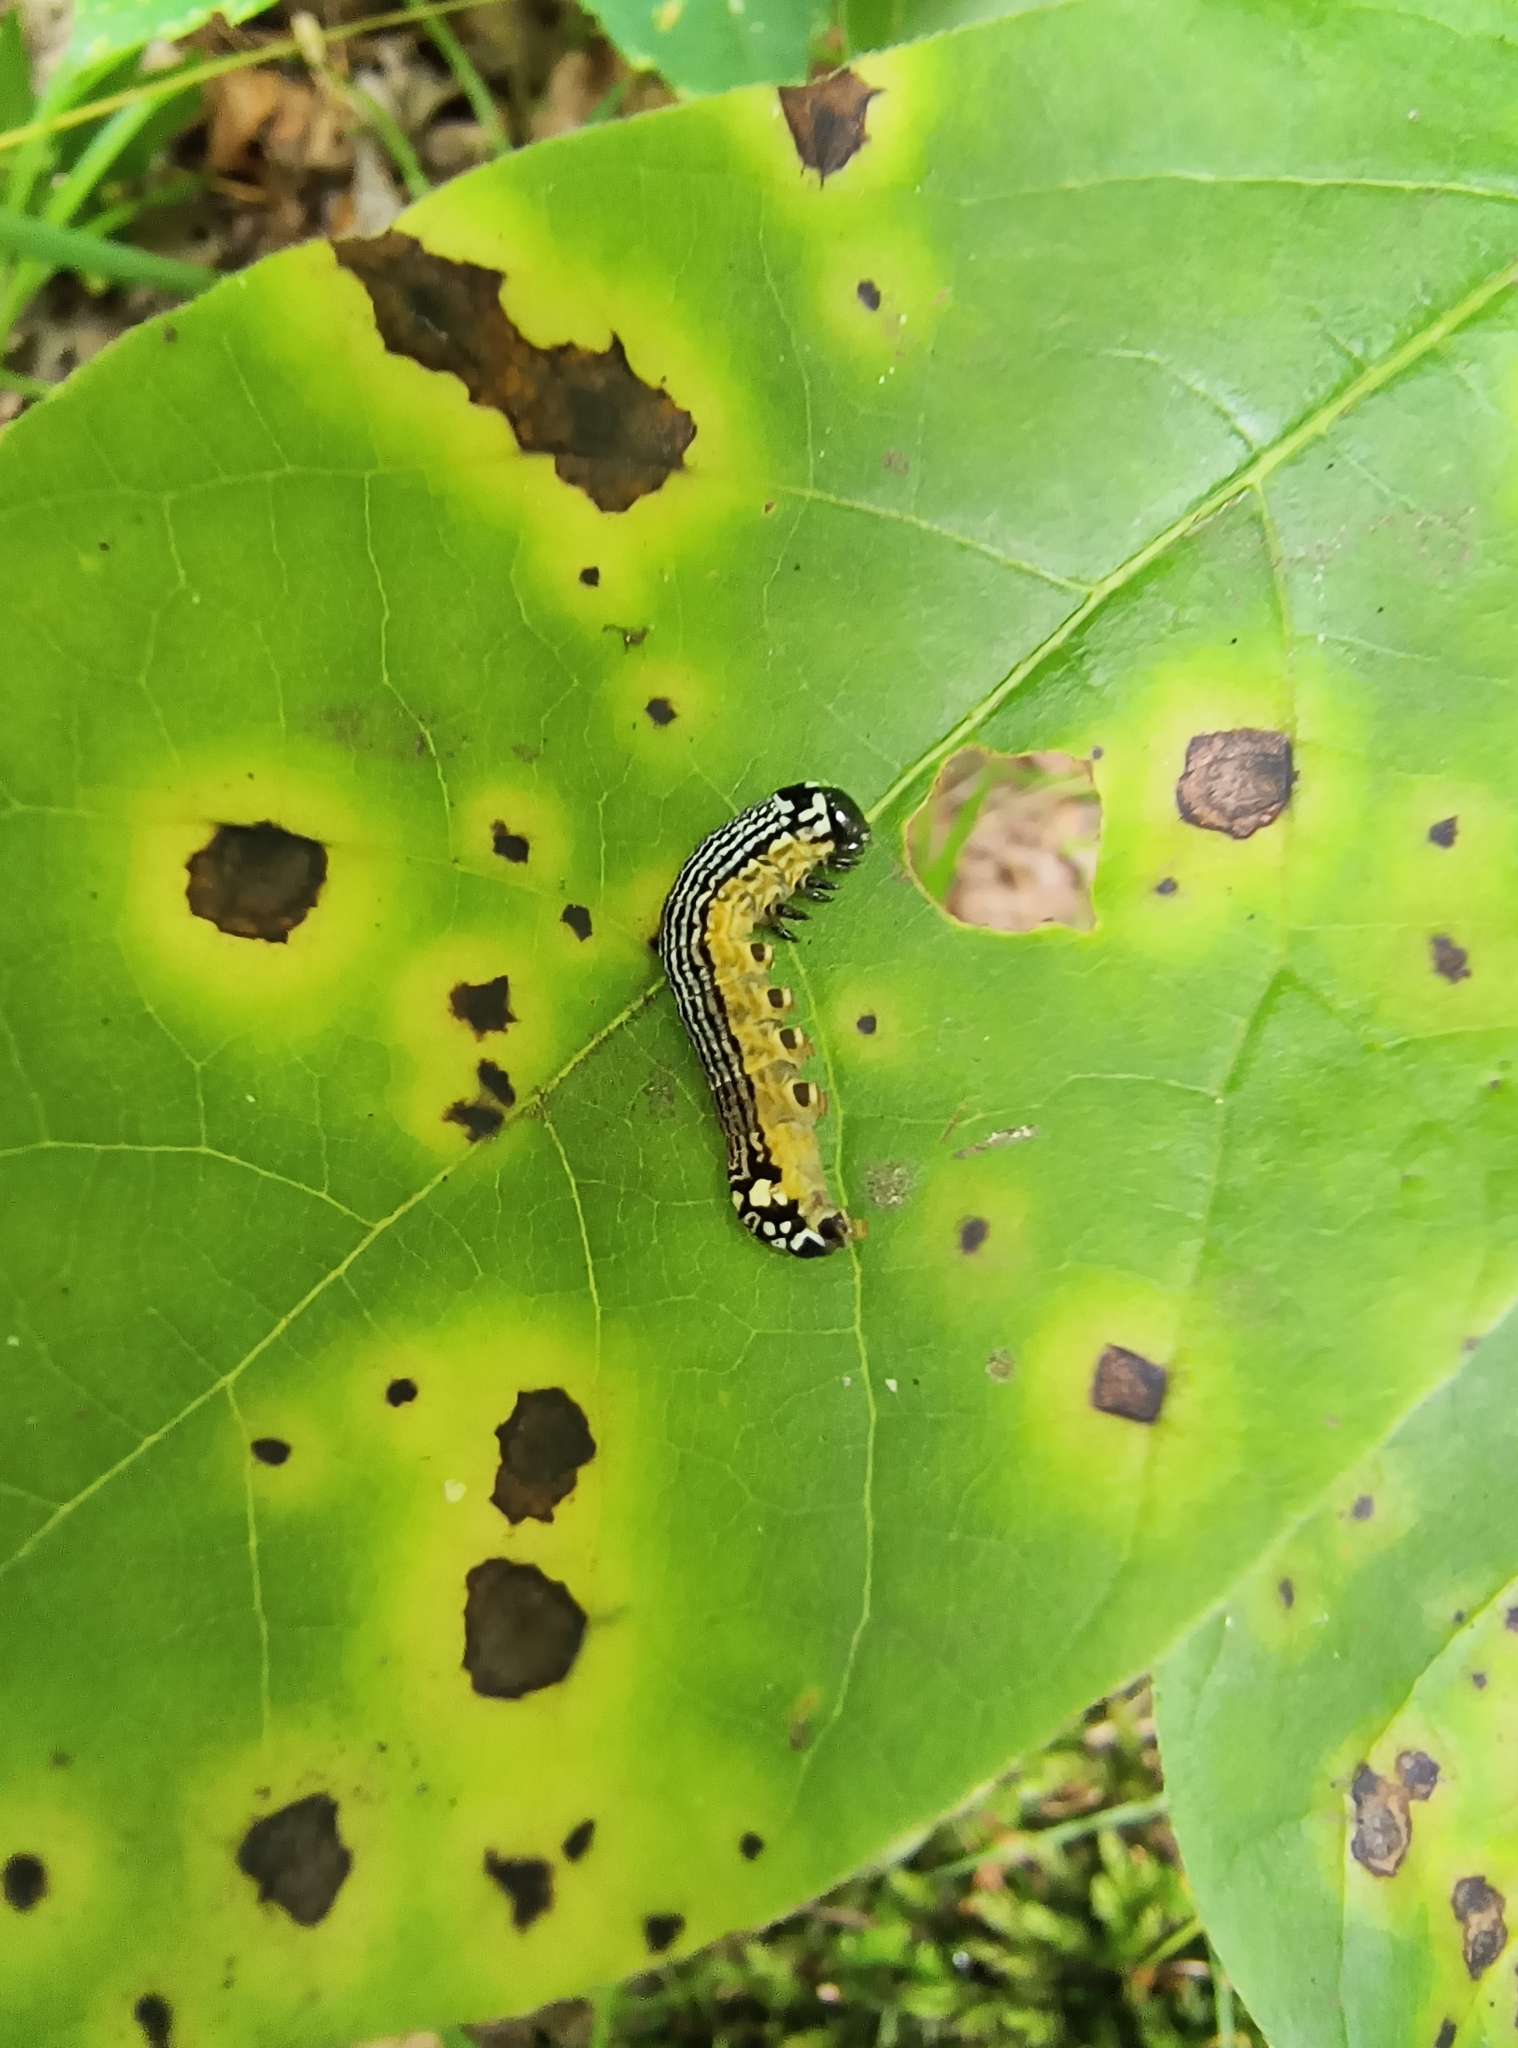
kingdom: Animalia
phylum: Arthropoda
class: Insecta
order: Lepidoptera
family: Noctuidae
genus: Phosphila
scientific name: Phosphila turbulenta
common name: Turbulent phosphila moth
